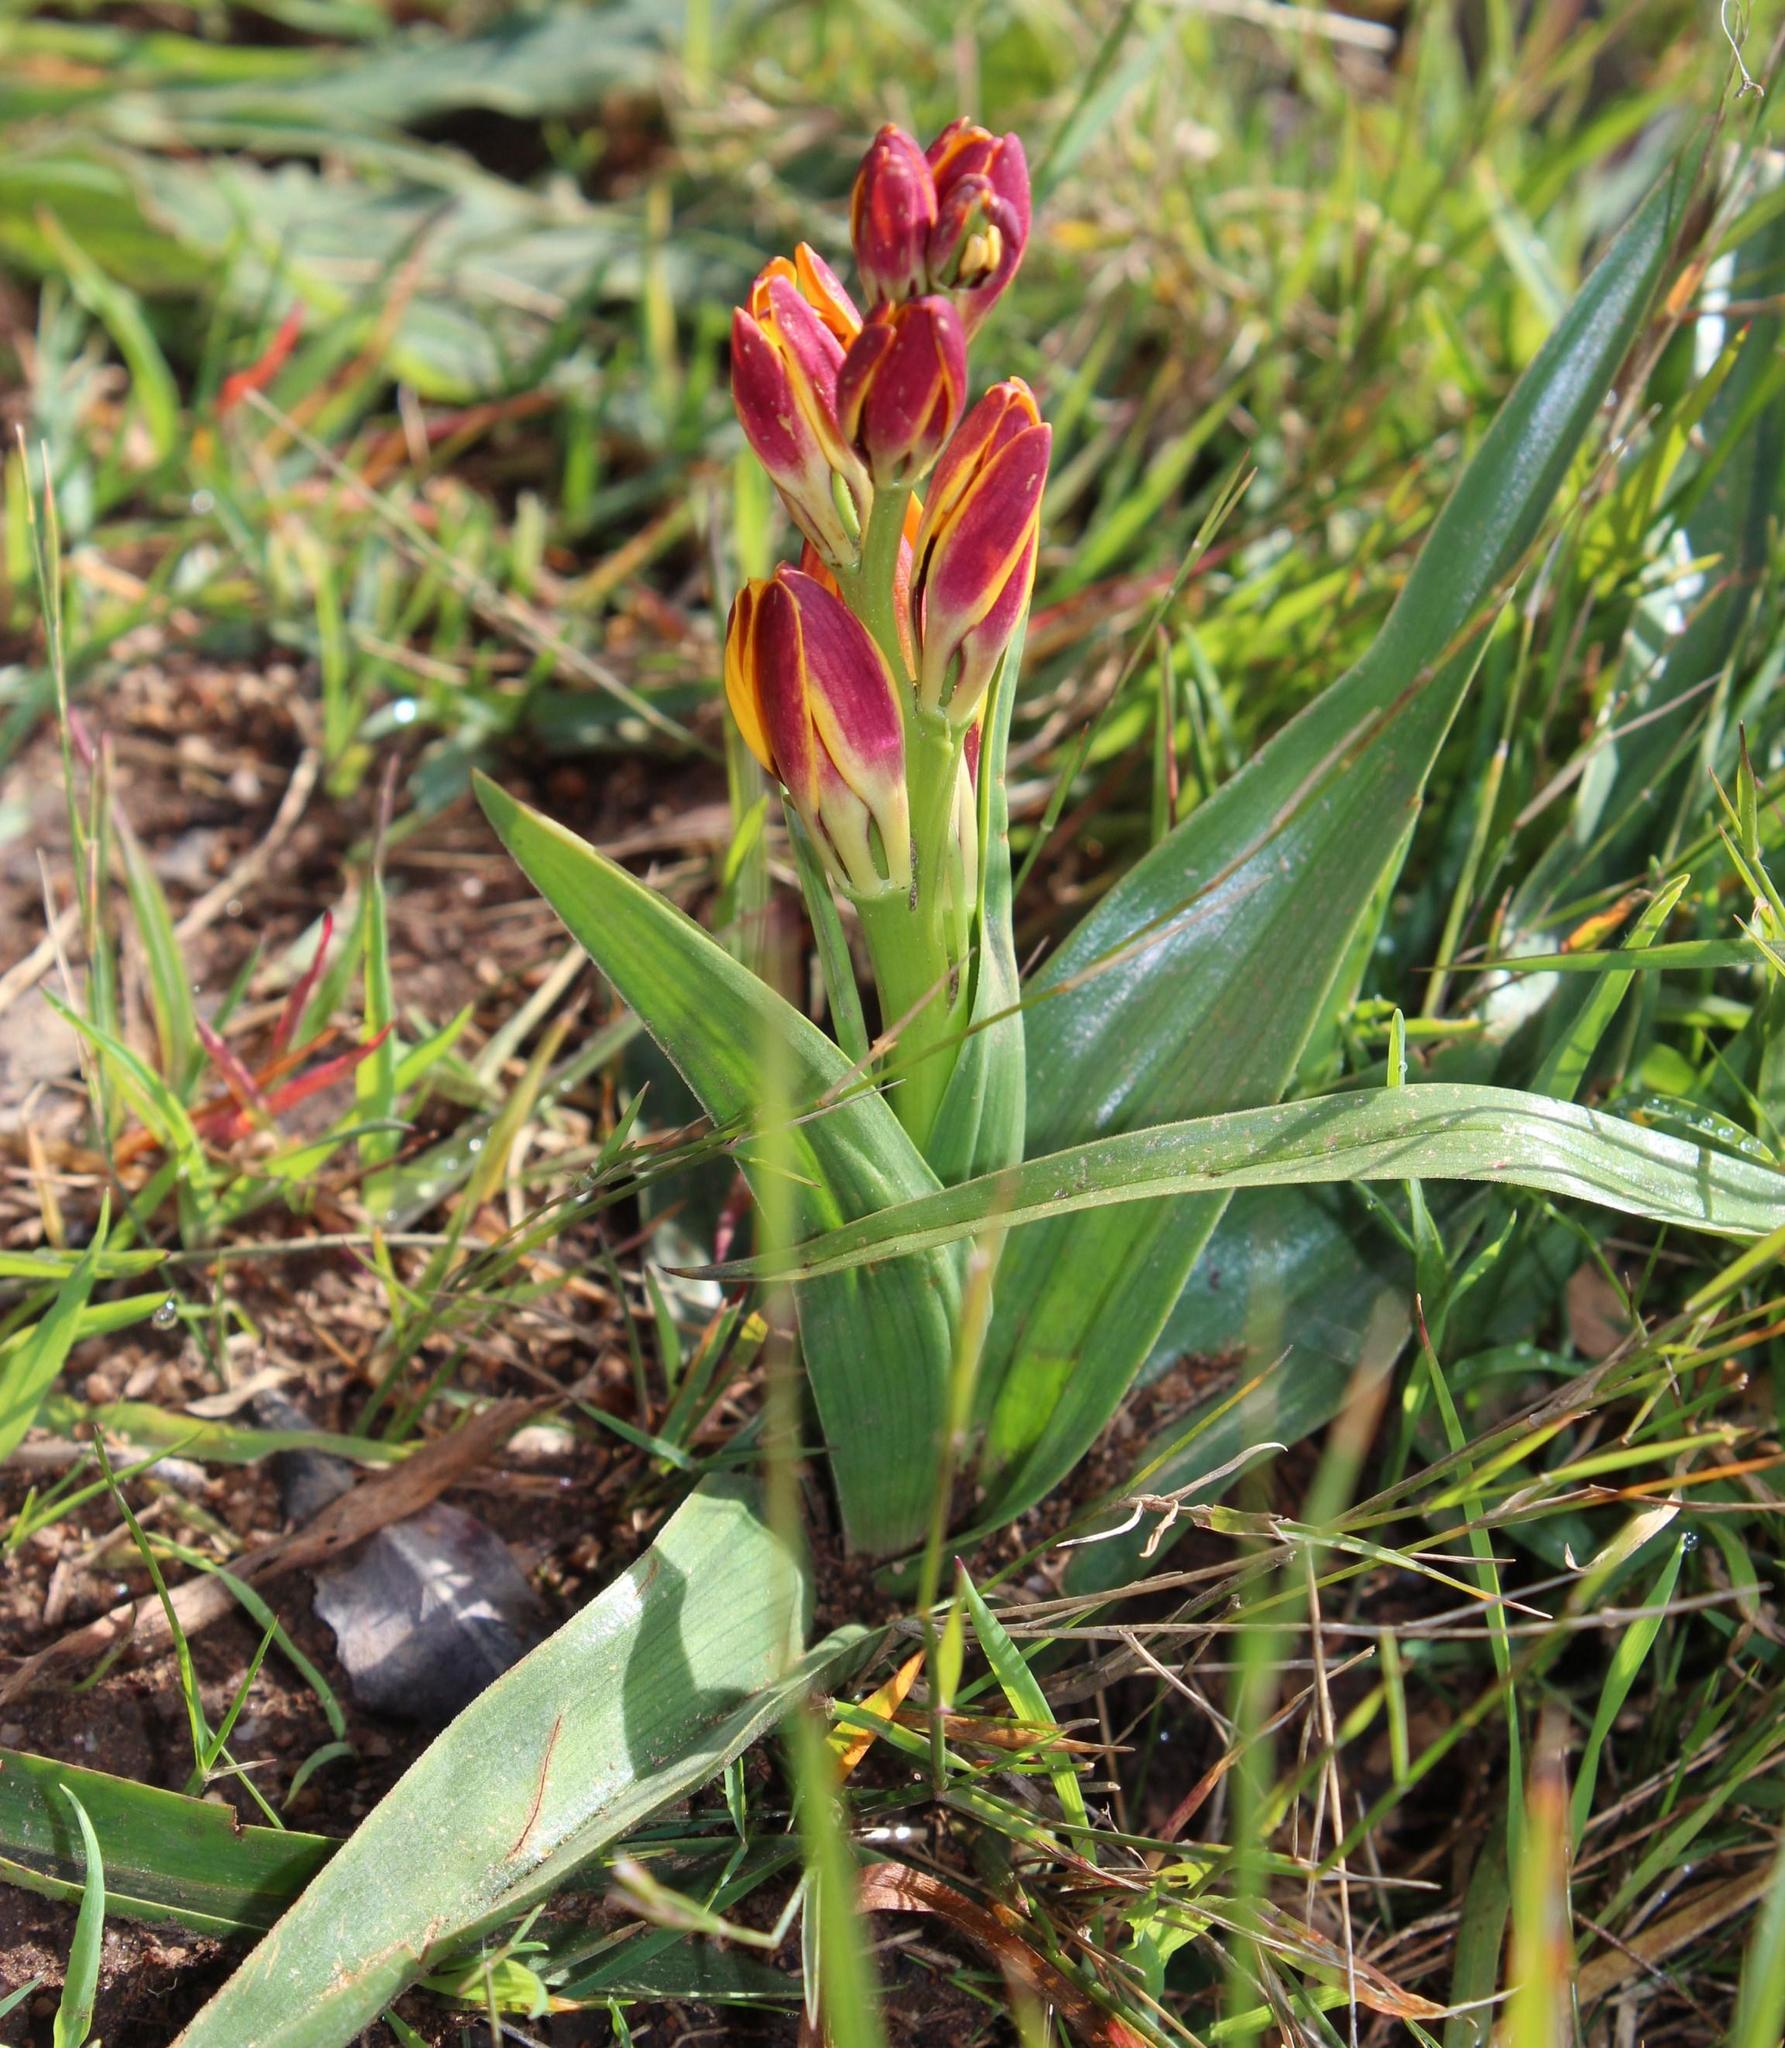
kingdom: Plantae
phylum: Tracheophyta
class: Liliopsida
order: Liliales
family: Colchicaceae
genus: Baeometra
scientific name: Baeometra uniflora
